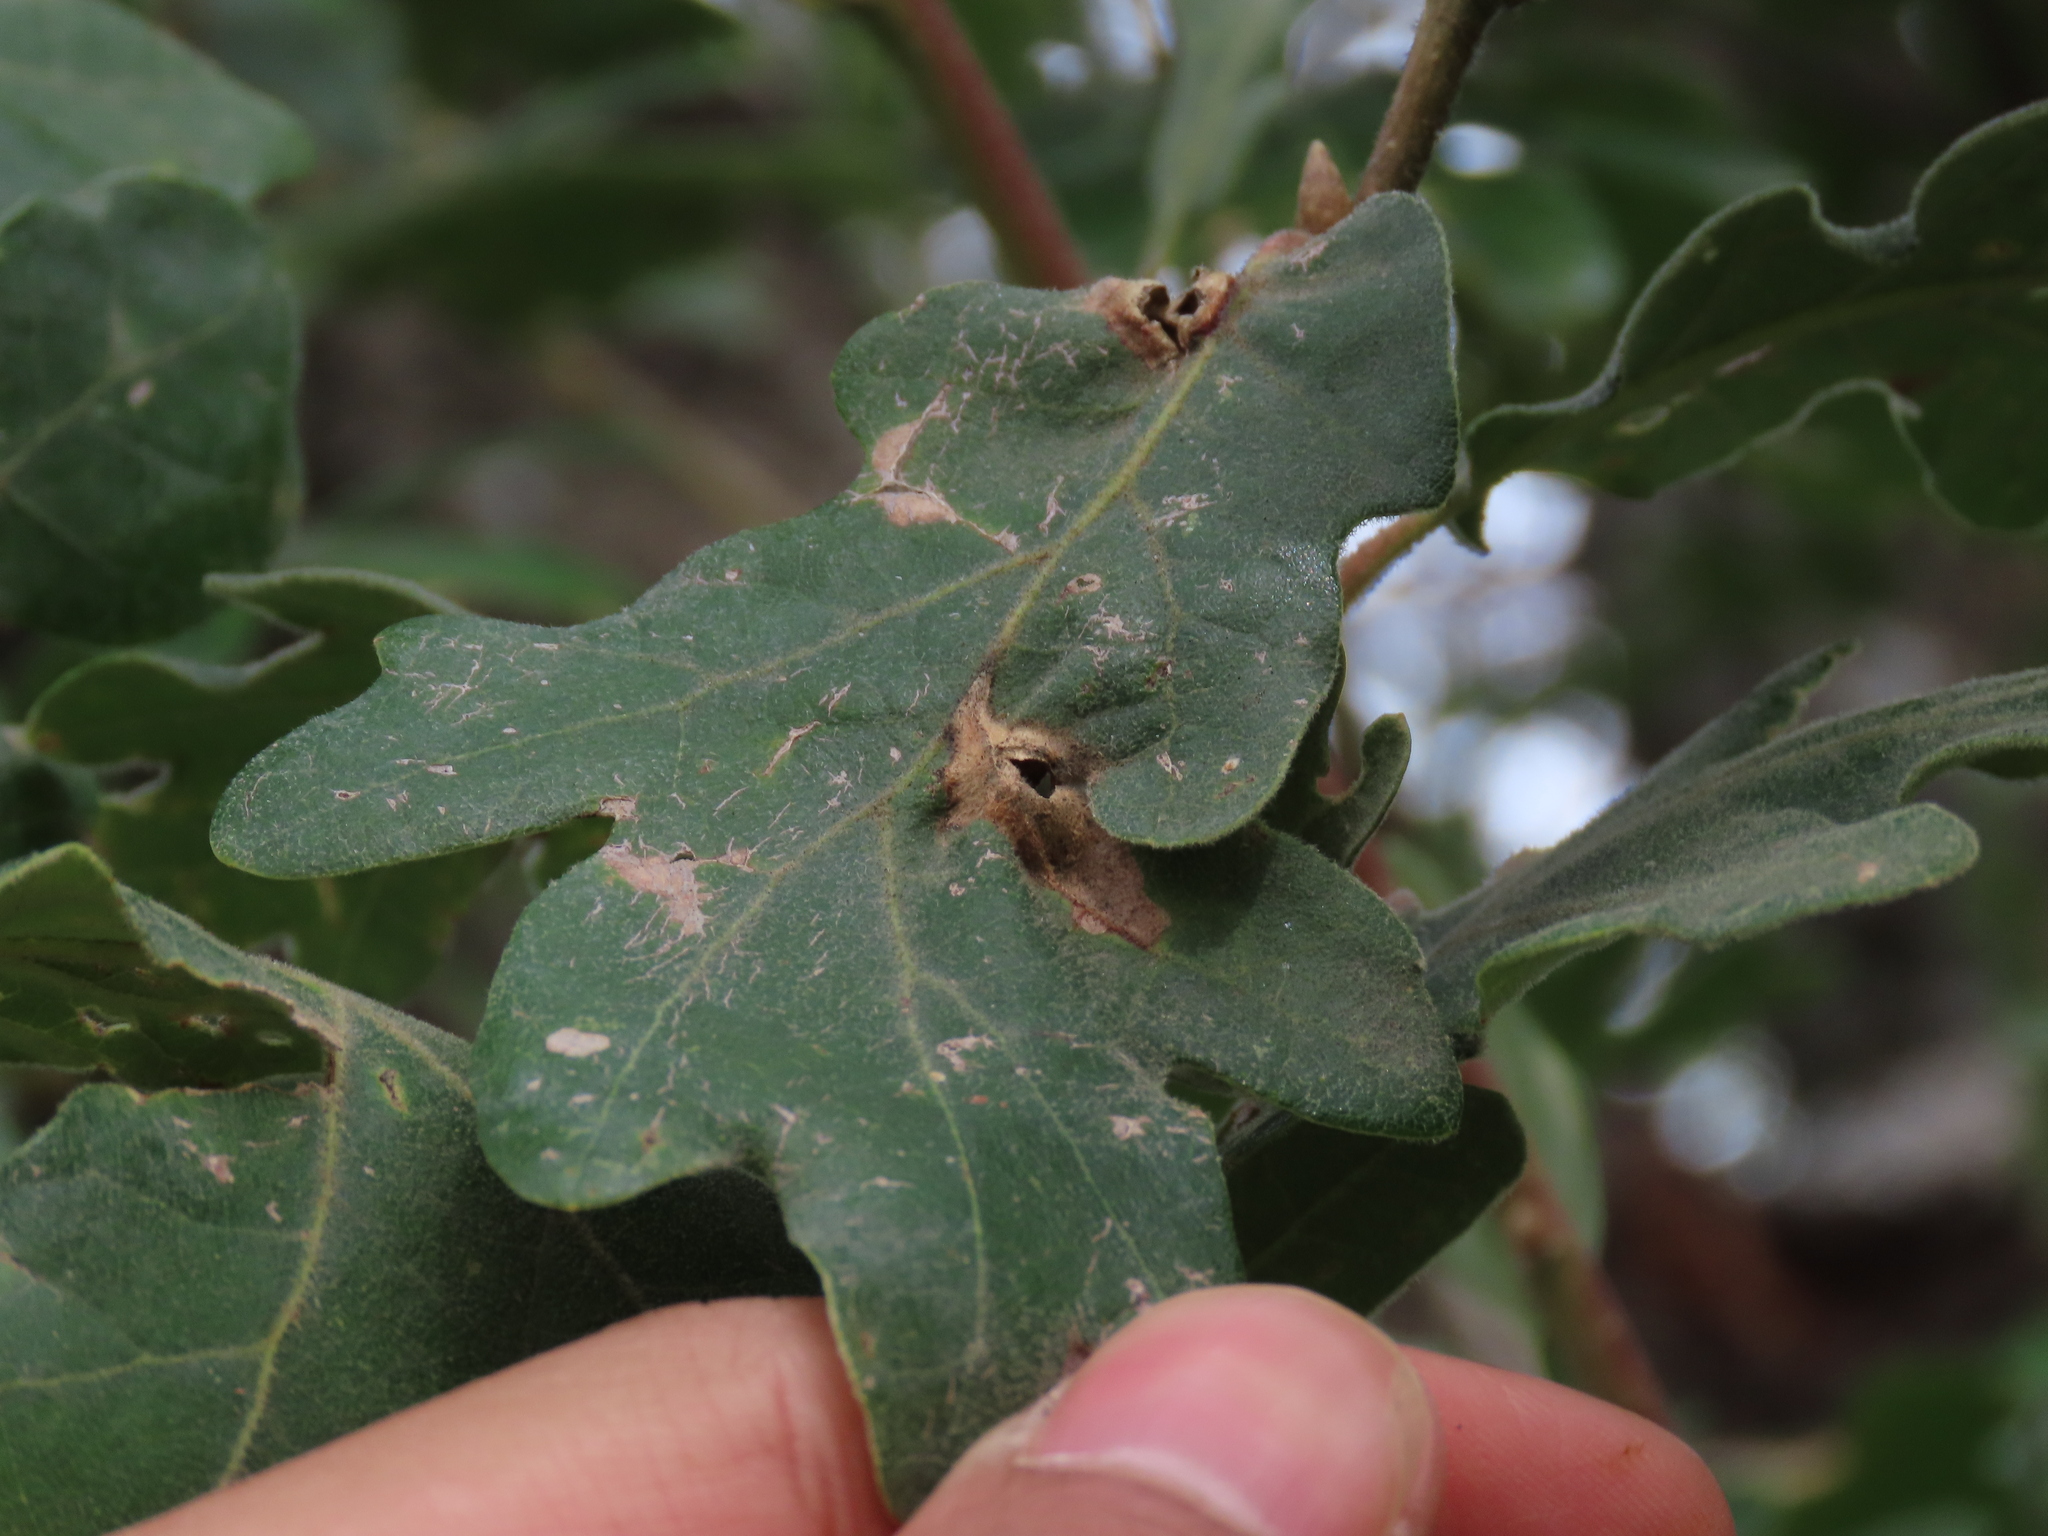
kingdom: Animalia
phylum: Arthropoda
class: Insecta
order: Hymenoptera
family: Cynipidae
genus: Andricus
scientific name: Andricus curvator
